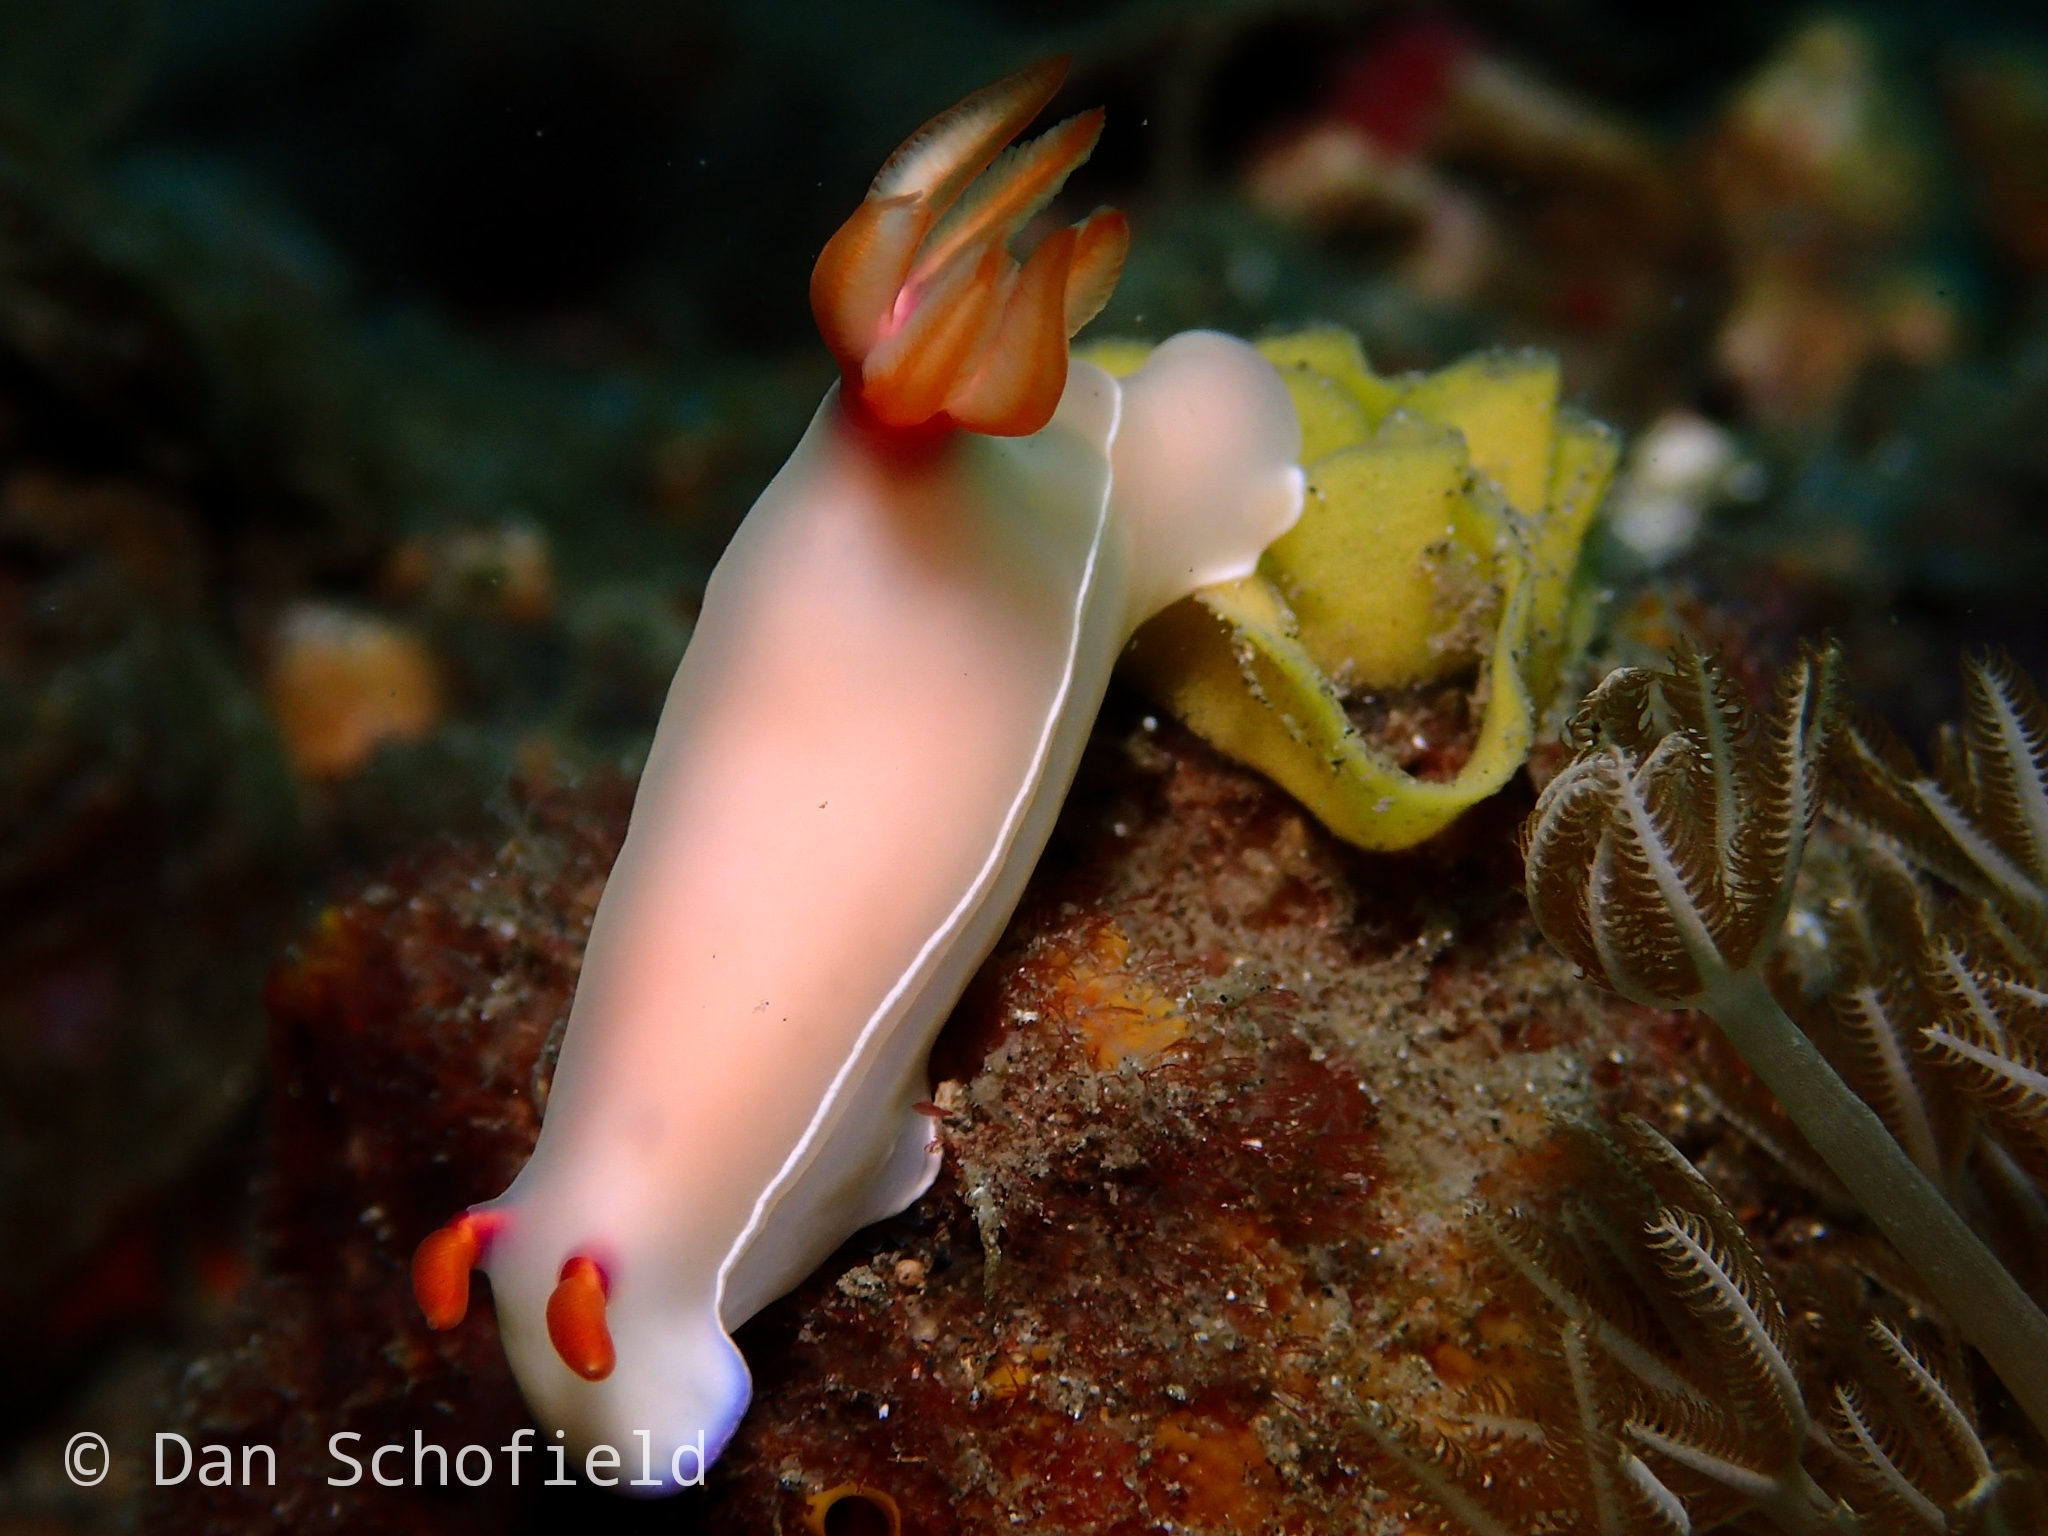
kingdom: Animalia
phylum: Mollusca
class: Gastropoda
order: Nudibranchia
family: Chromodorididae
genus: Hypselodoris
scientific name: Hypselodoris bullockii
